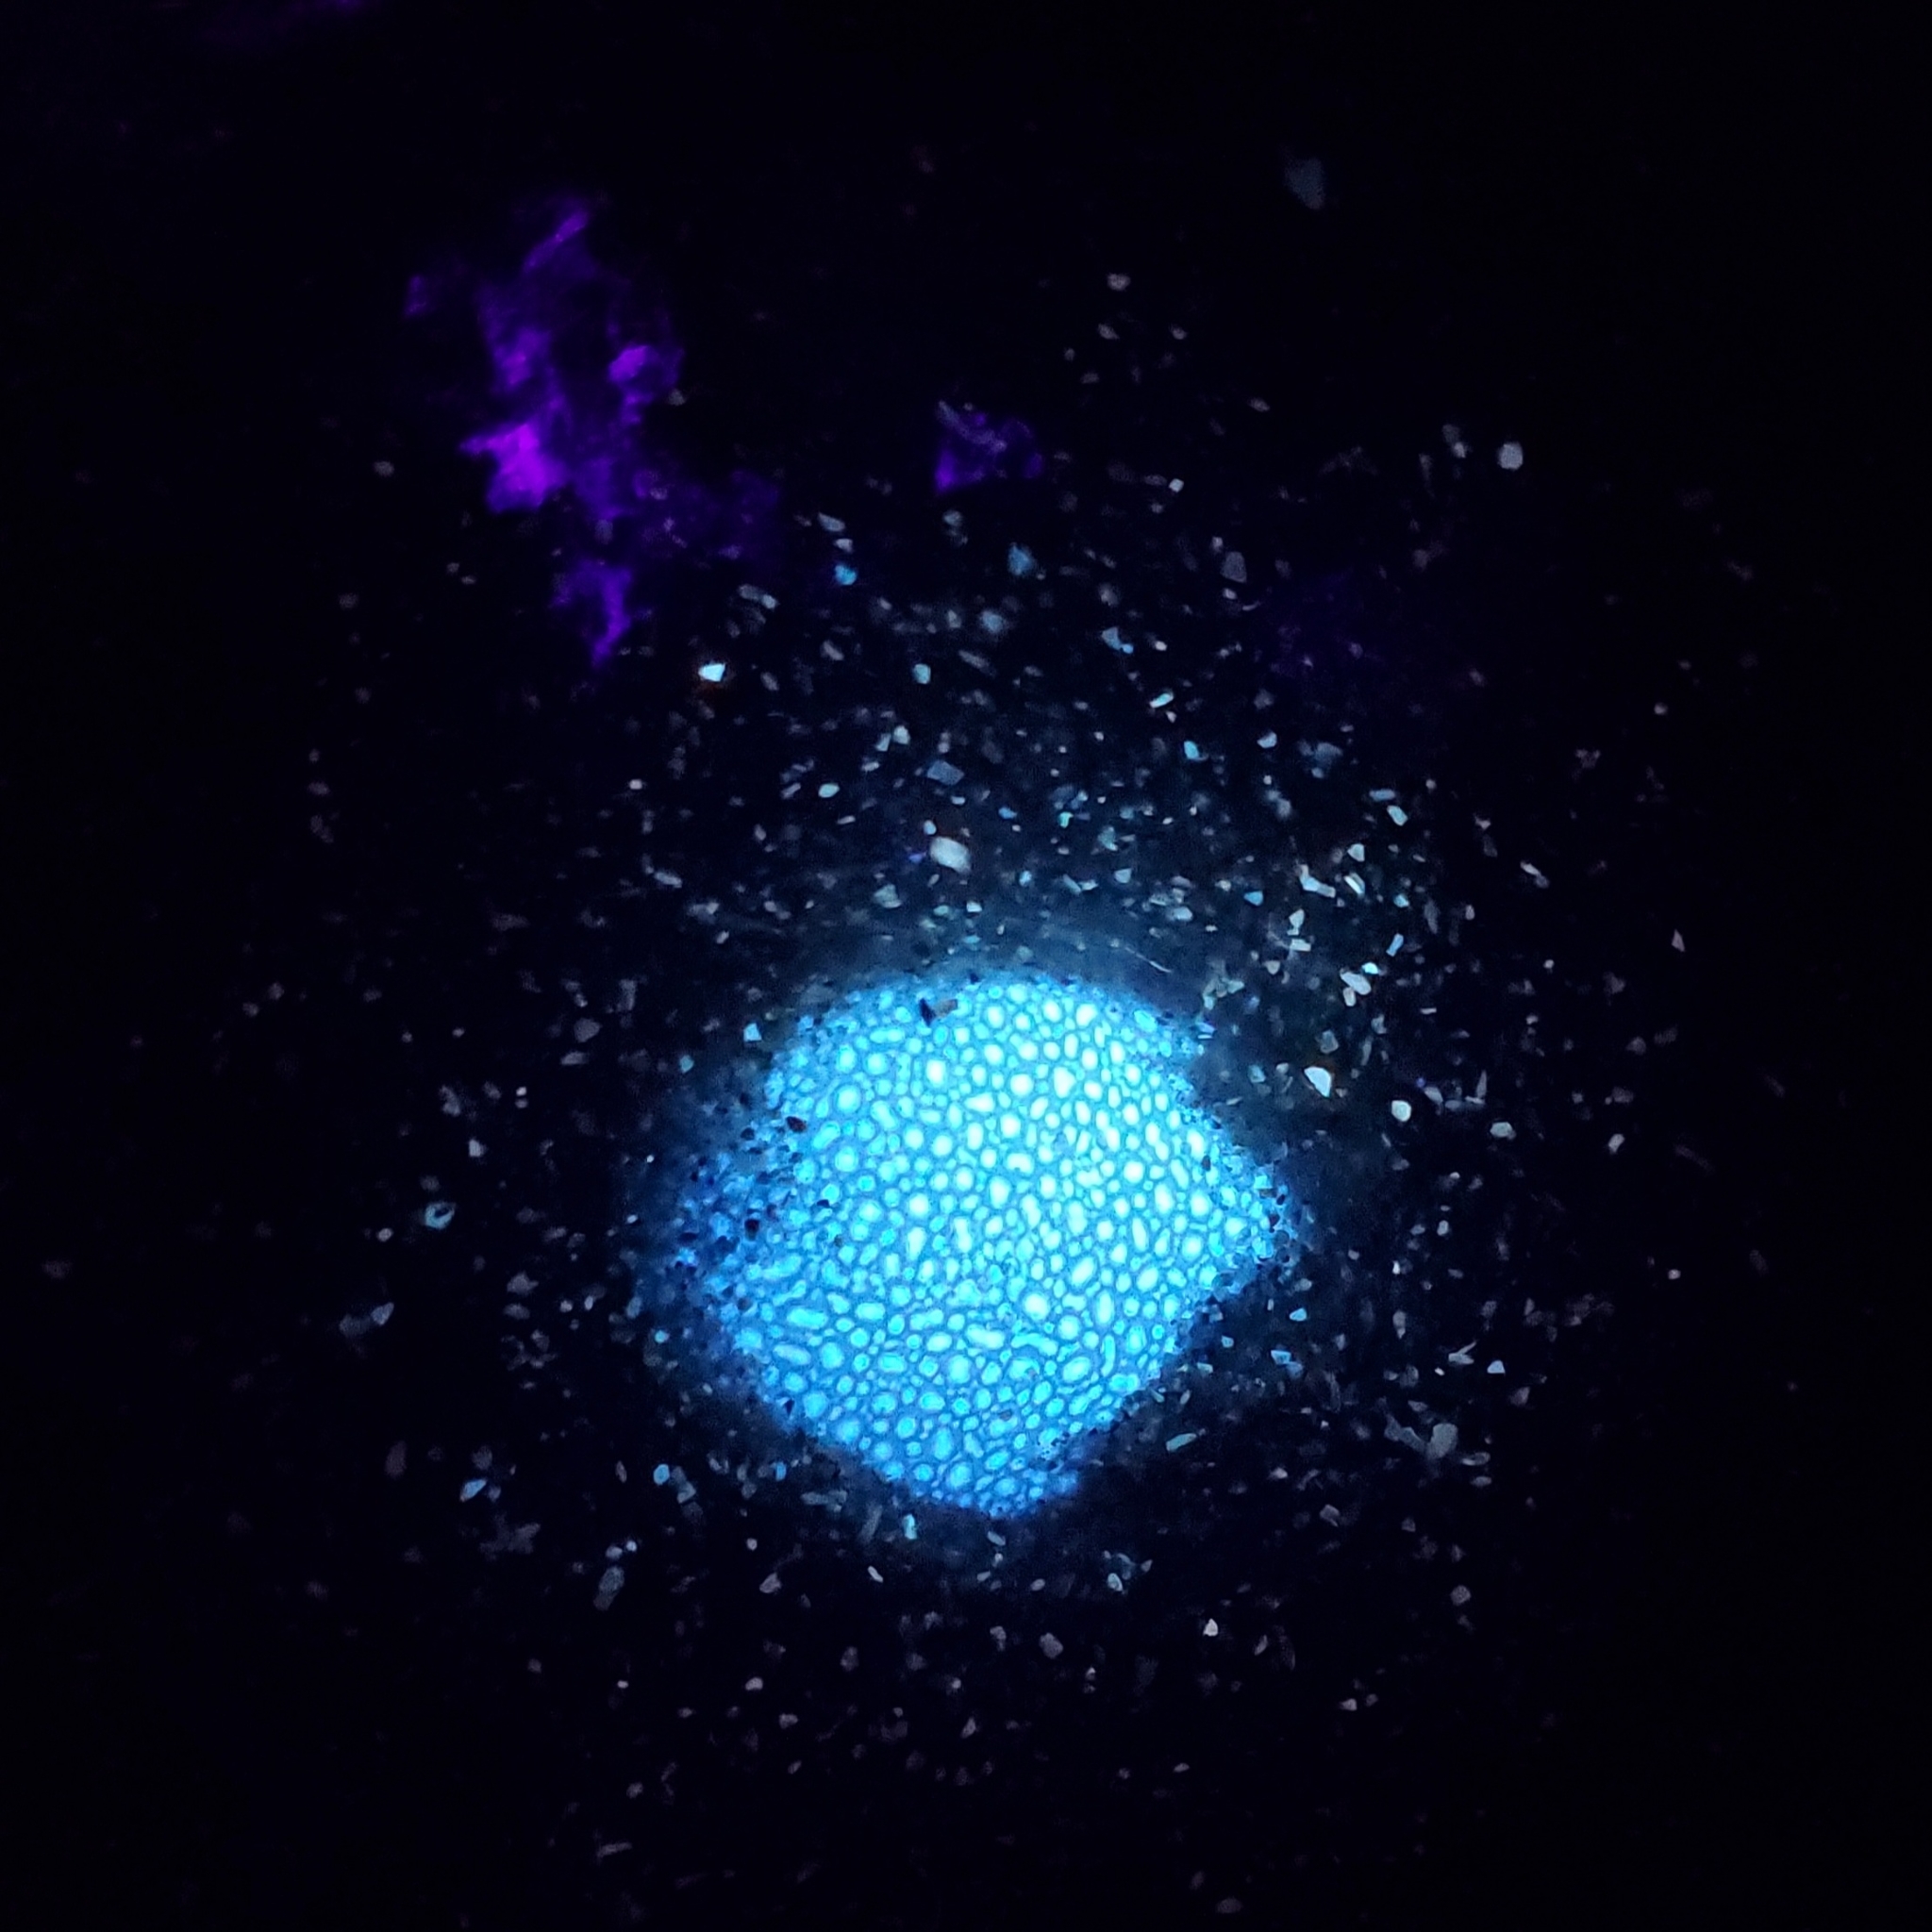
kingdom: Animalia
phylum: Arthropoda
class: Malacostraca
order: Decapoda
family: Portunidae
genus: Arenaeus
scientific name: Arenaeus cribrarius
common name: Speckled crab
